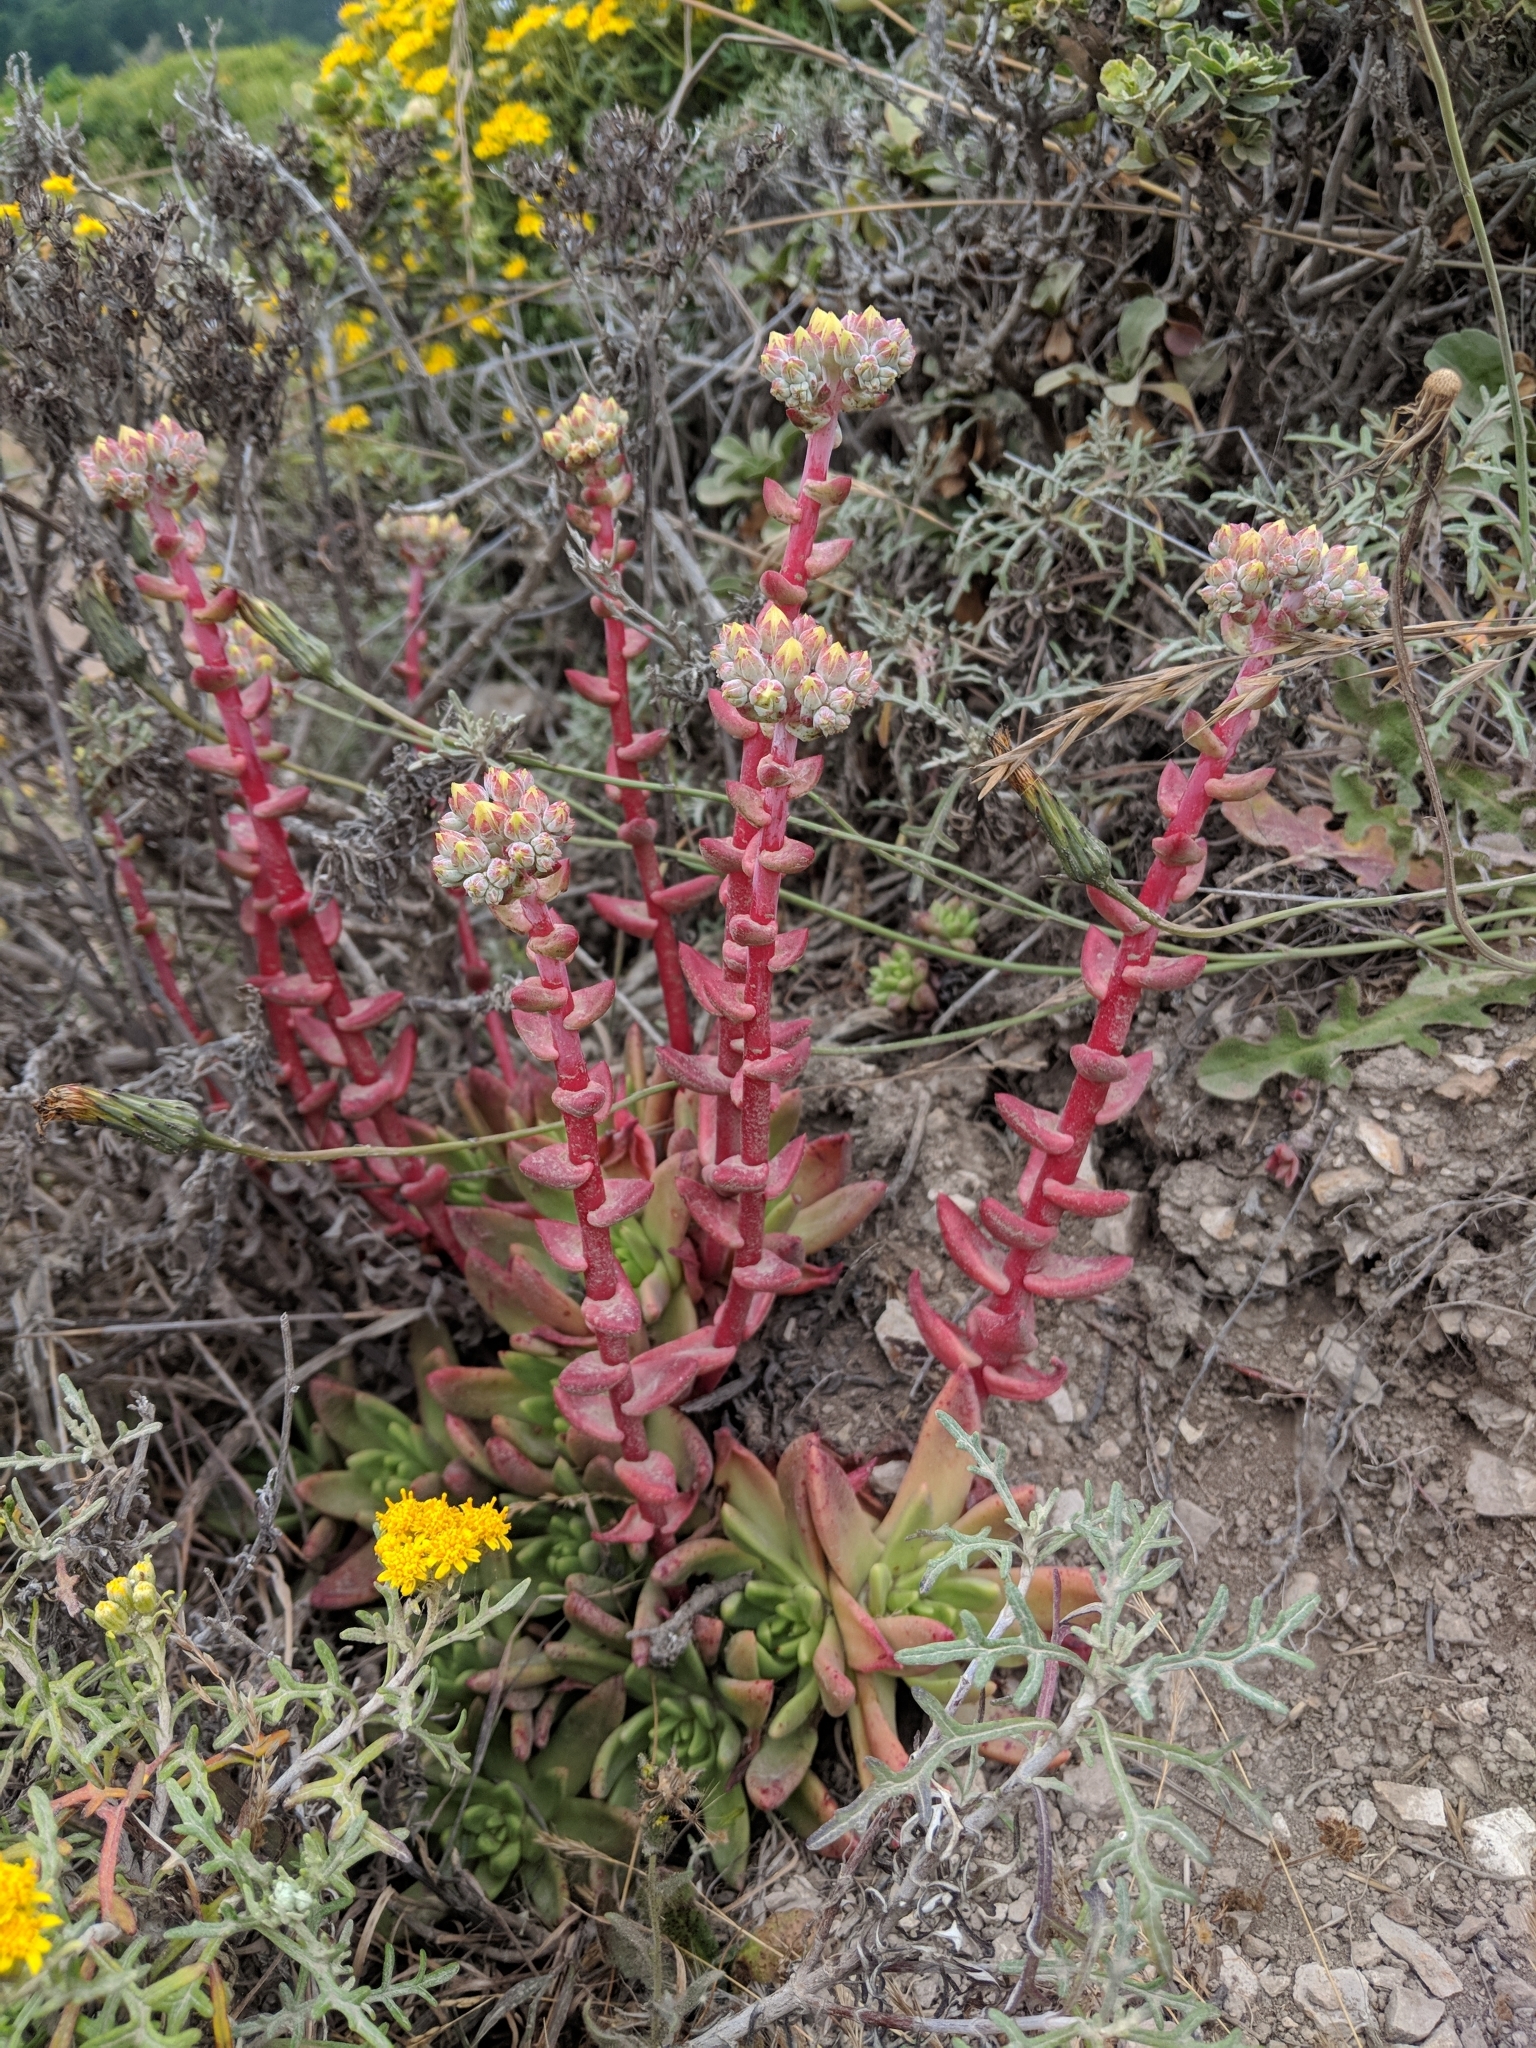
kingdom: Plantae
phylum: Tracheophyta
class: Magnoliopsida
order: Saxifragales
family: Crassulaceae
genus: Dudleya
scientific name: Dudleya farinosa
